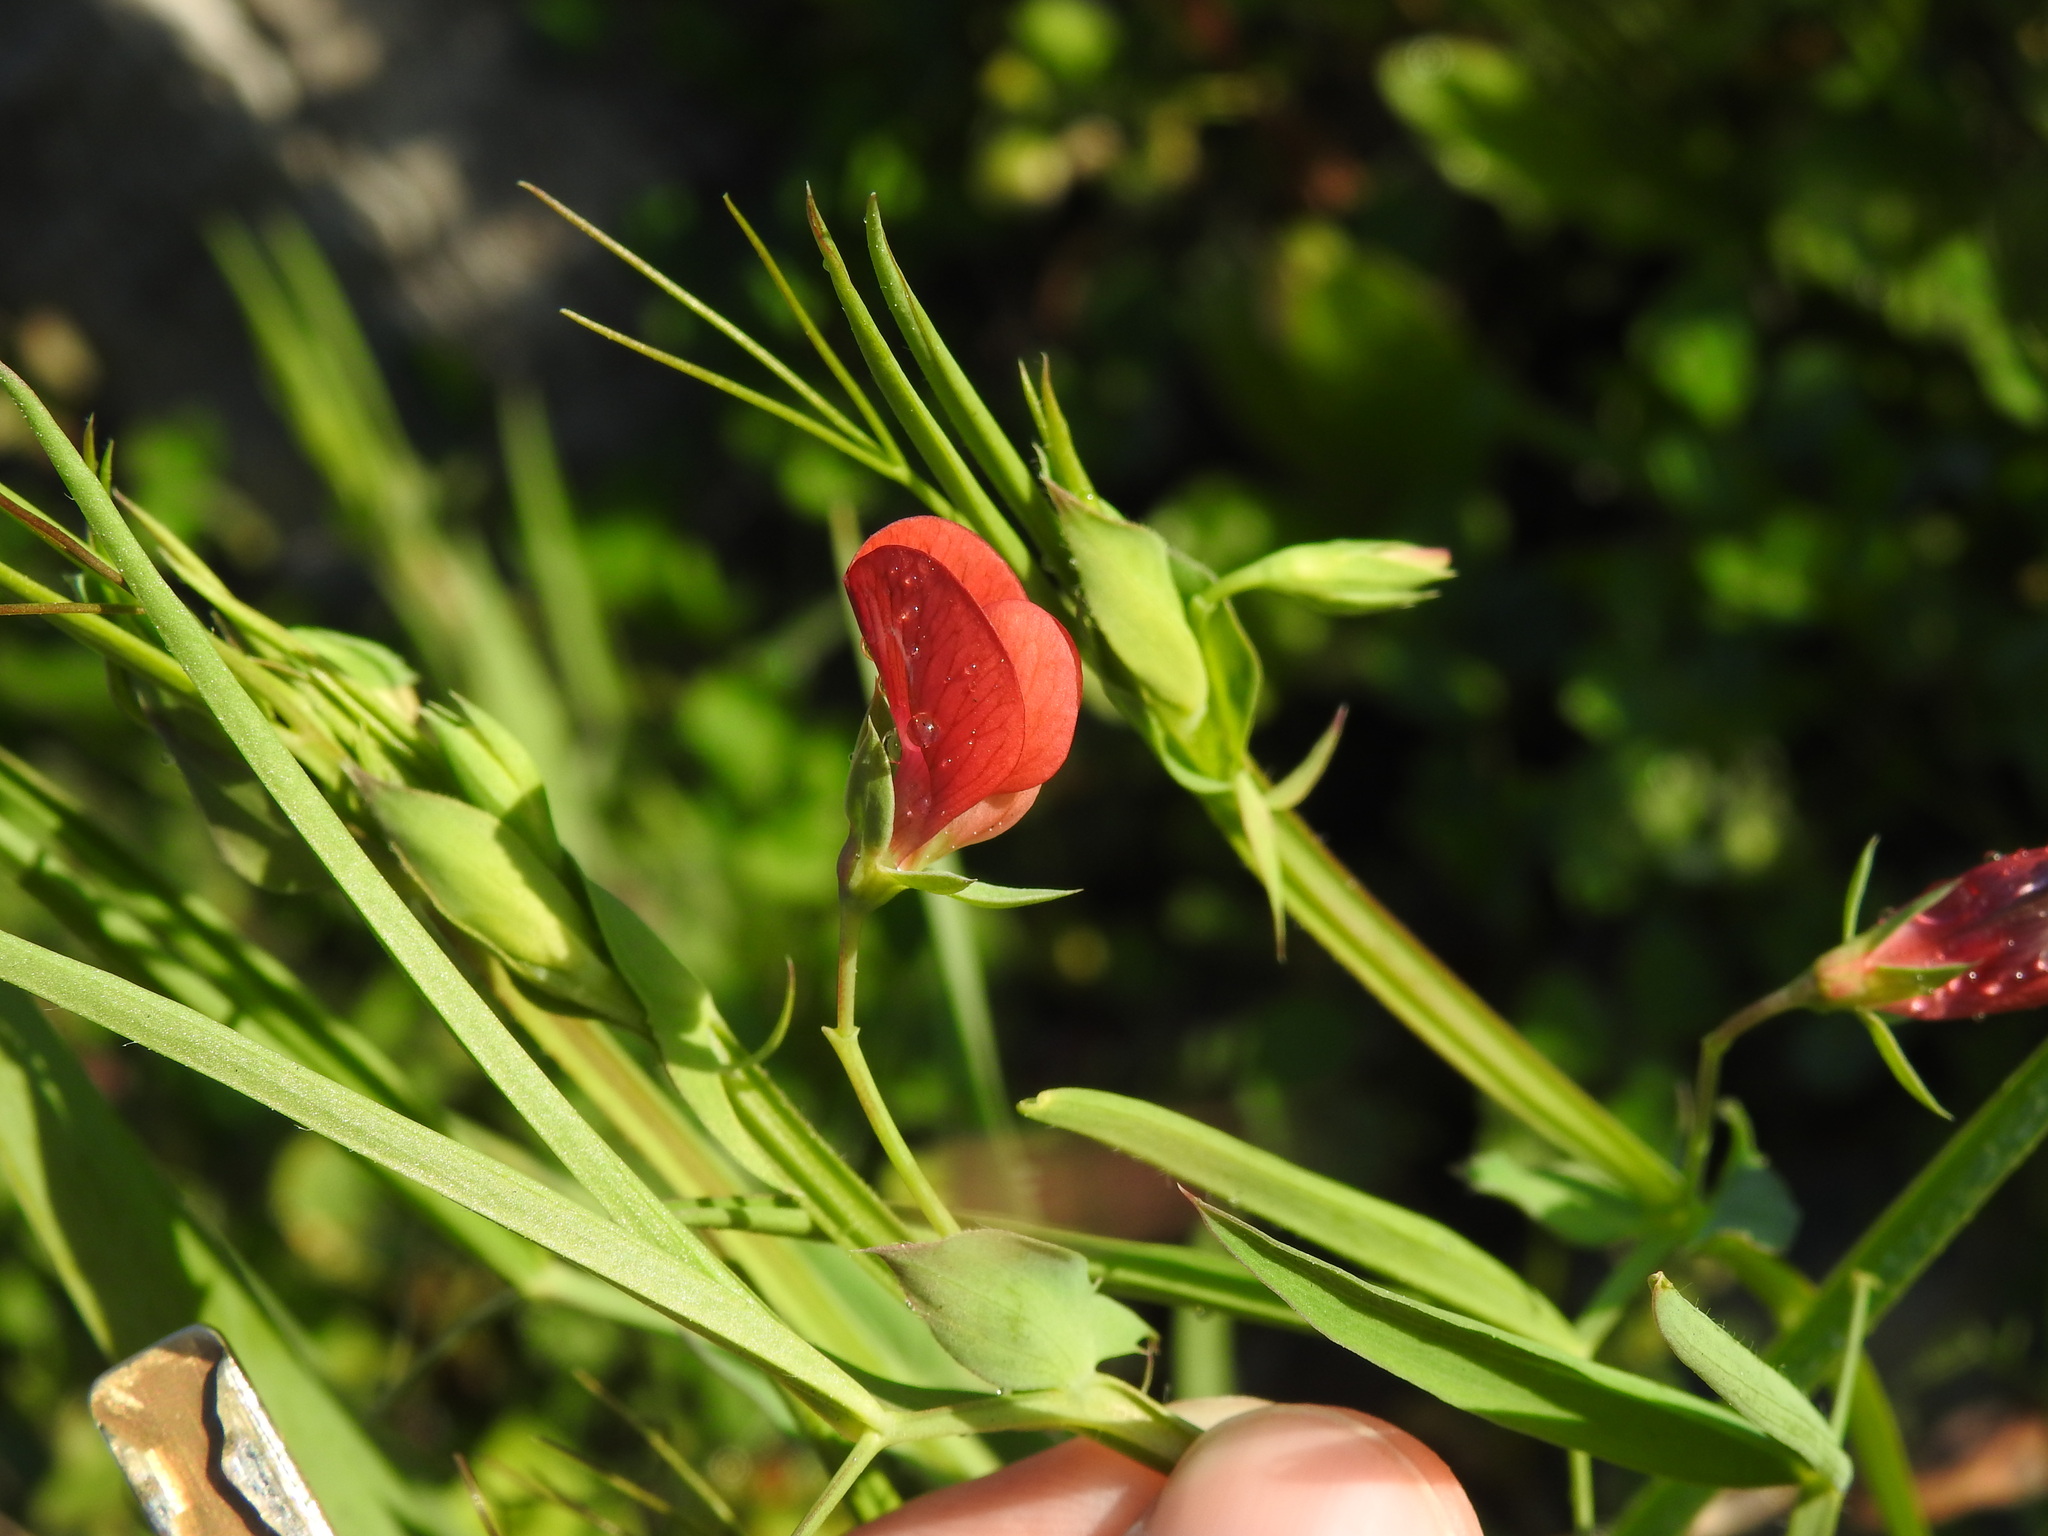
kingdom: Plantae
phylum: Tracheophyta
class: Magnoliopsida
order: Fabales
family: Fabaceae
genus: Lathyrus
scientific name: Lathyrus cicera
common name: Red vetchling
